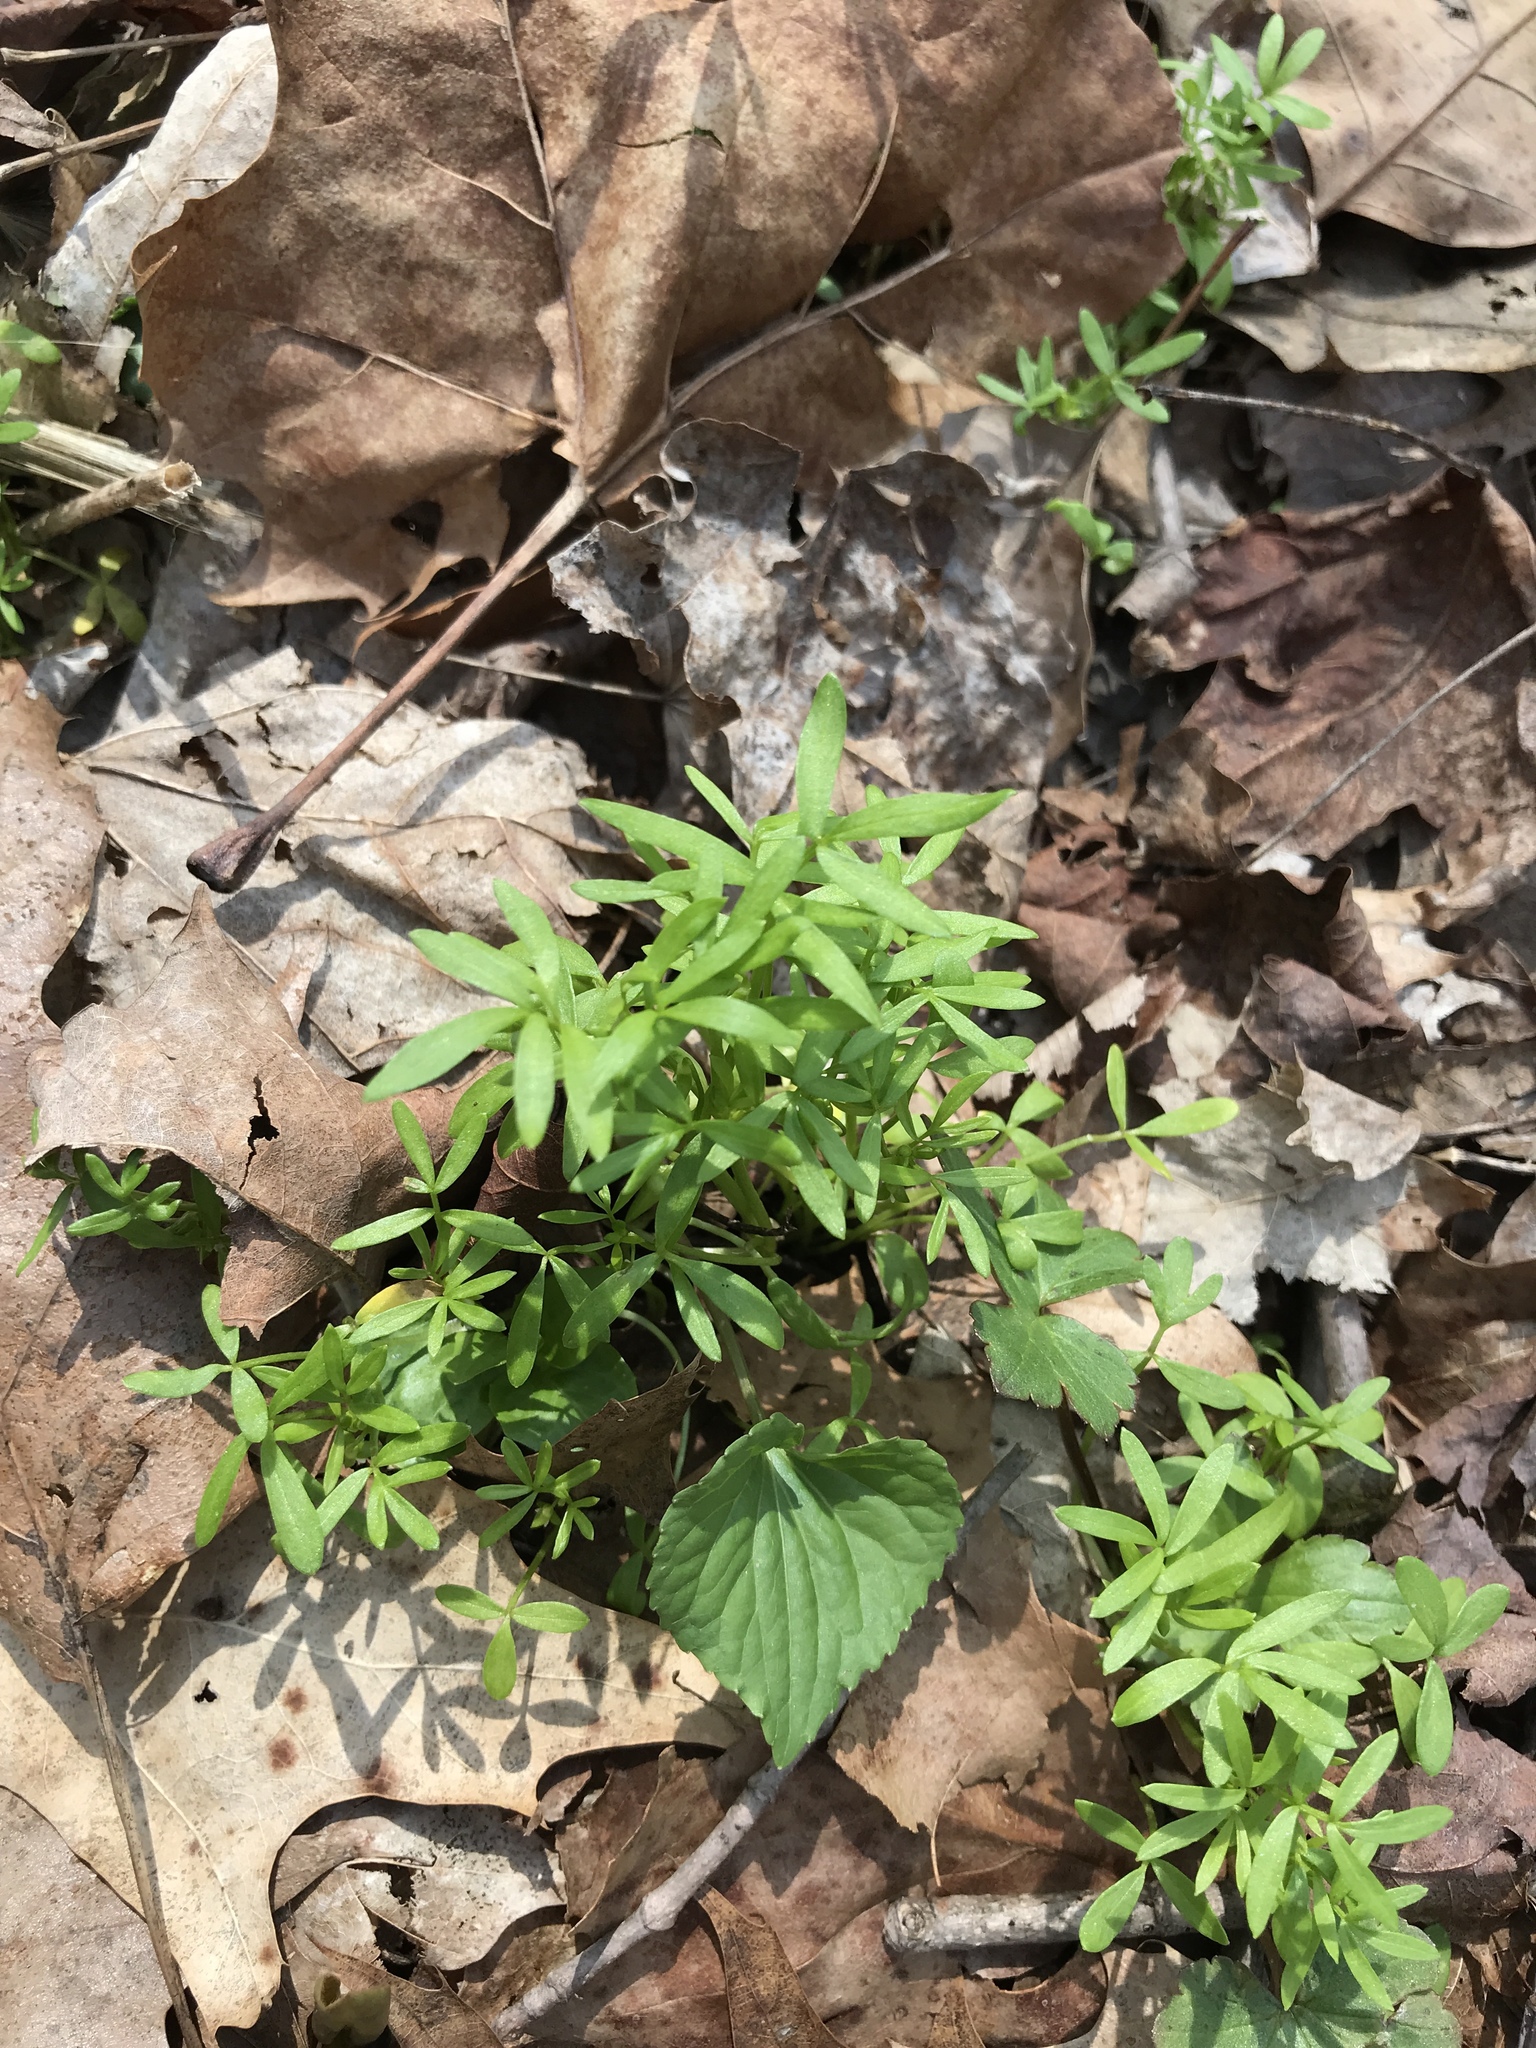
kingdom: Plantae
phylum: Tracheophyta
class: Magnoliopsida
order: Brassicales
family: Limnanthaceae
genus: Floerkea
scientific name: Floerkea proserpinacoides
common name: False mermaid
